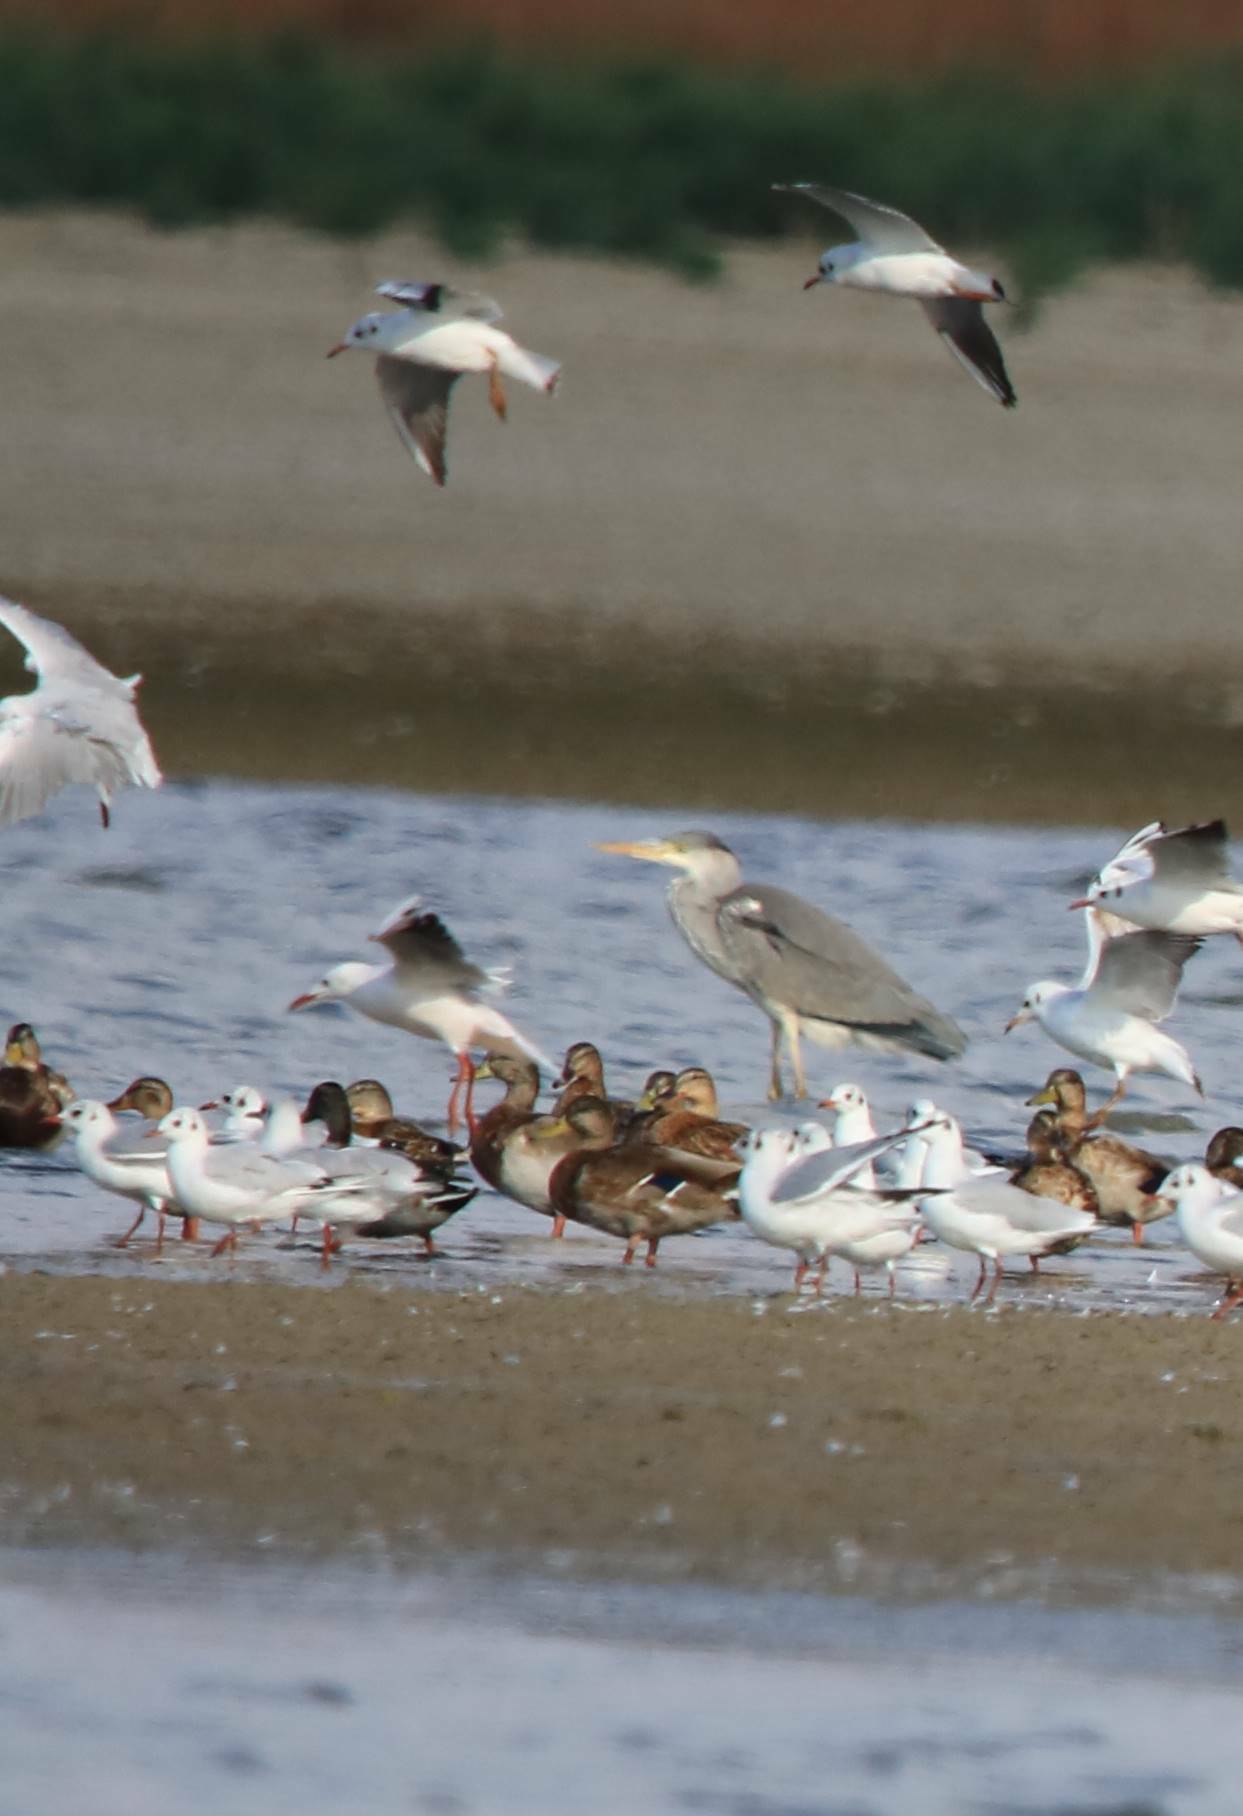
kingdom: Animalia
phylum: Chordata
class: Aves
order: Pelecaniformes
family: Ardeidae
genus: Ardea
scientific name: Ardea cinerea
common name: Grey heron
